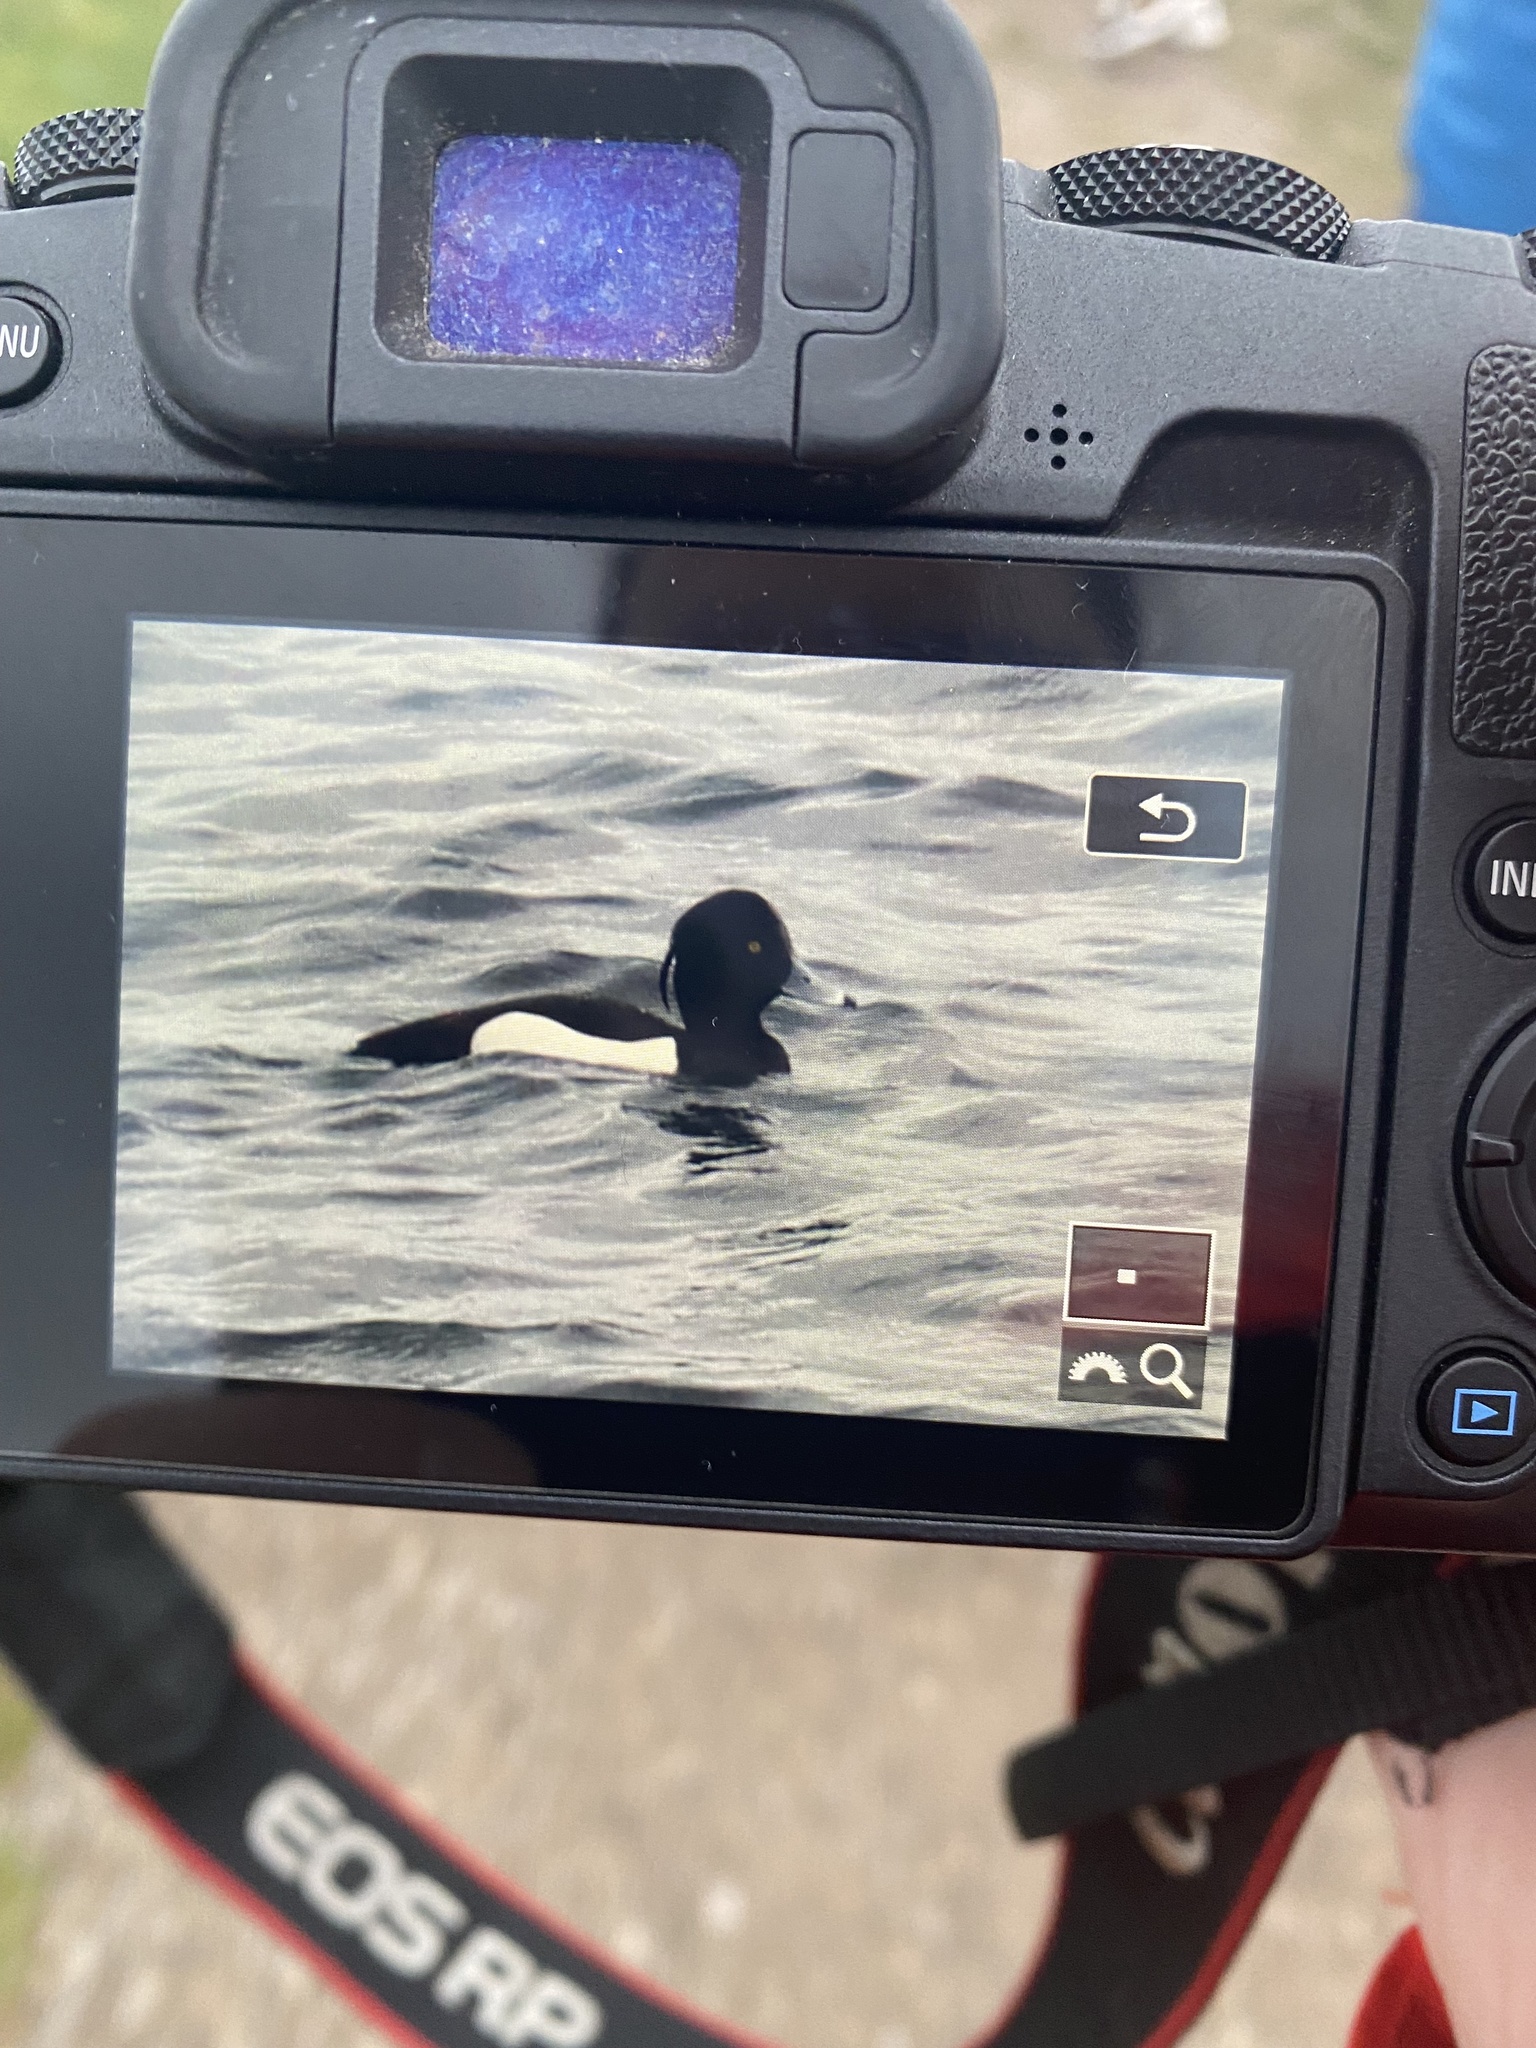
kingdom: Animalia
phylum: Chordata
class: Aves
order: Anseriformes
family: Anatidae
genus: Aythya
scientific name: Aythya fuligula
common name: Tufted duck
